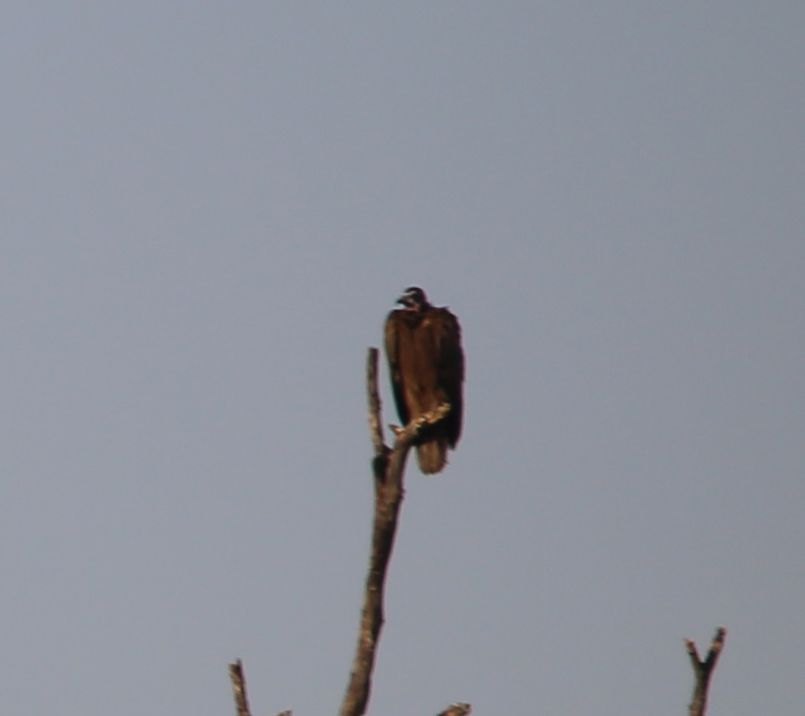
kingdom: Animalia
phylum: Chordata
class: Aves
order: Accipitriformes
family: Accipitridae
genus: Necrosyrtes
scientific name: Necrosyrtes monachus
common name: Hooded vulture
